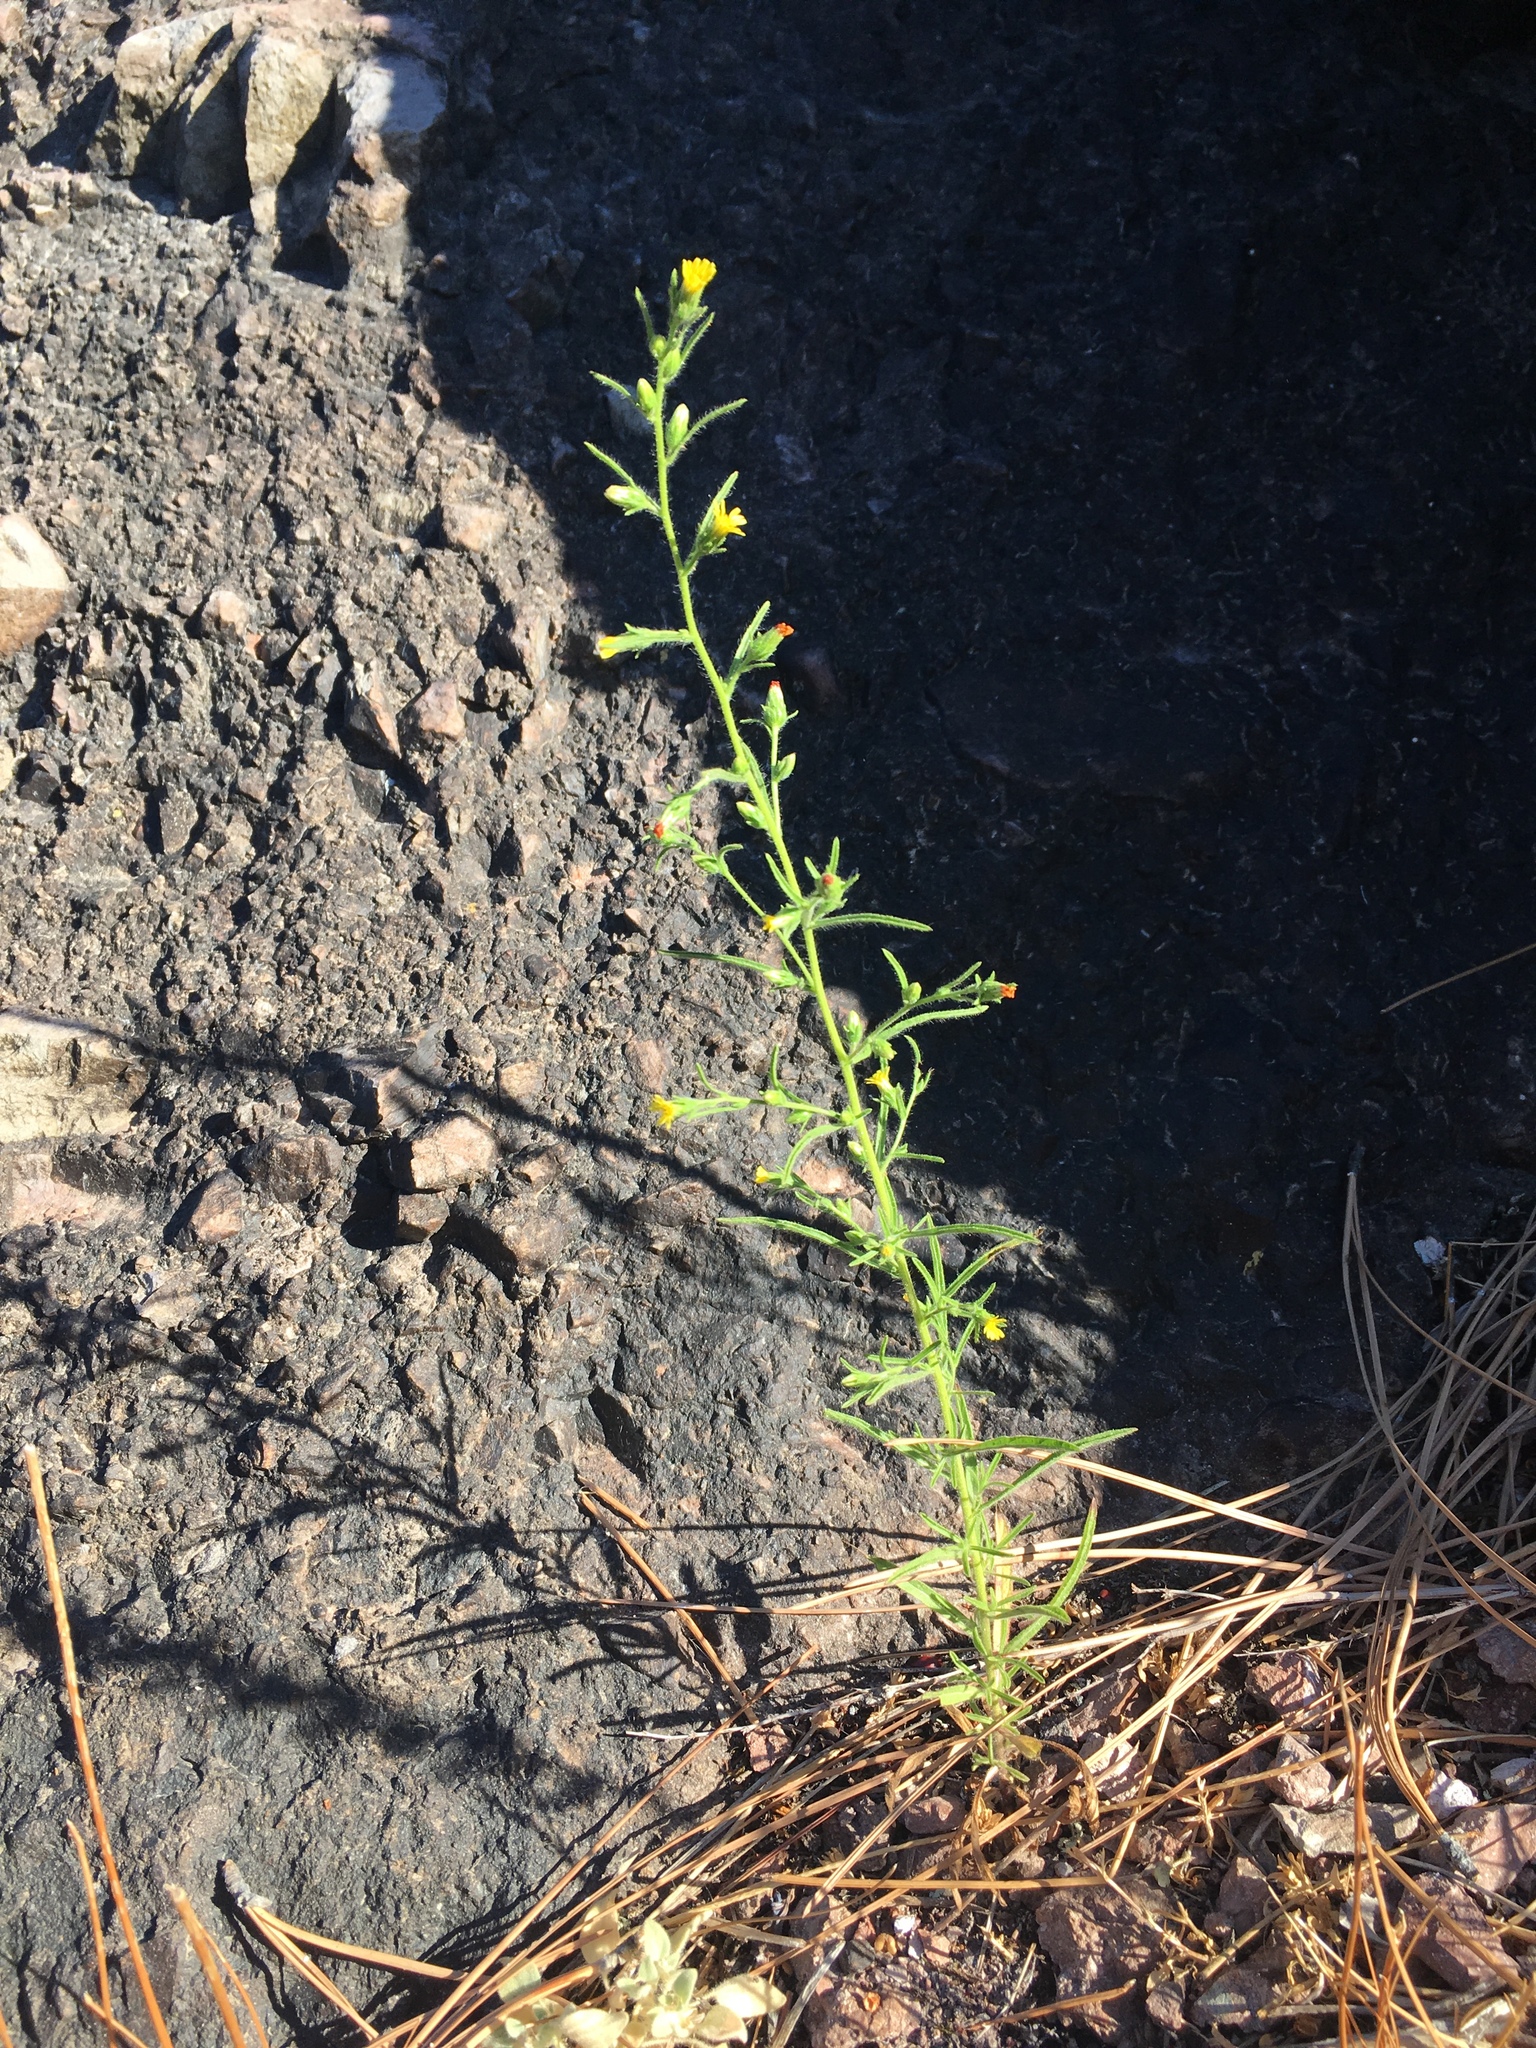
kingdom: Plantae
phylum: Tracheophyta
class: Magnoliopsida
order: Asterales
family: Asteraceae
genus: Dittrichia
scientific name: Dittrichia graveolens
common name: Stinking fleabane
